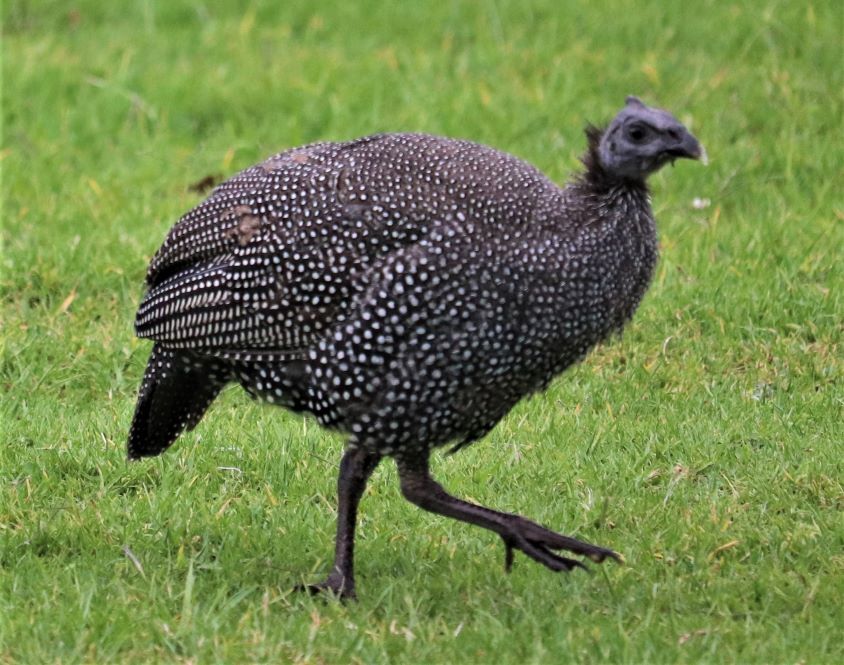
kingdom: Animalia
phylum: Chordata
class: Aves
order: Galliformes
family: Numididae
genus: Numida
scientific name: Numida meleagris
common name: Helmeted guineafowl
